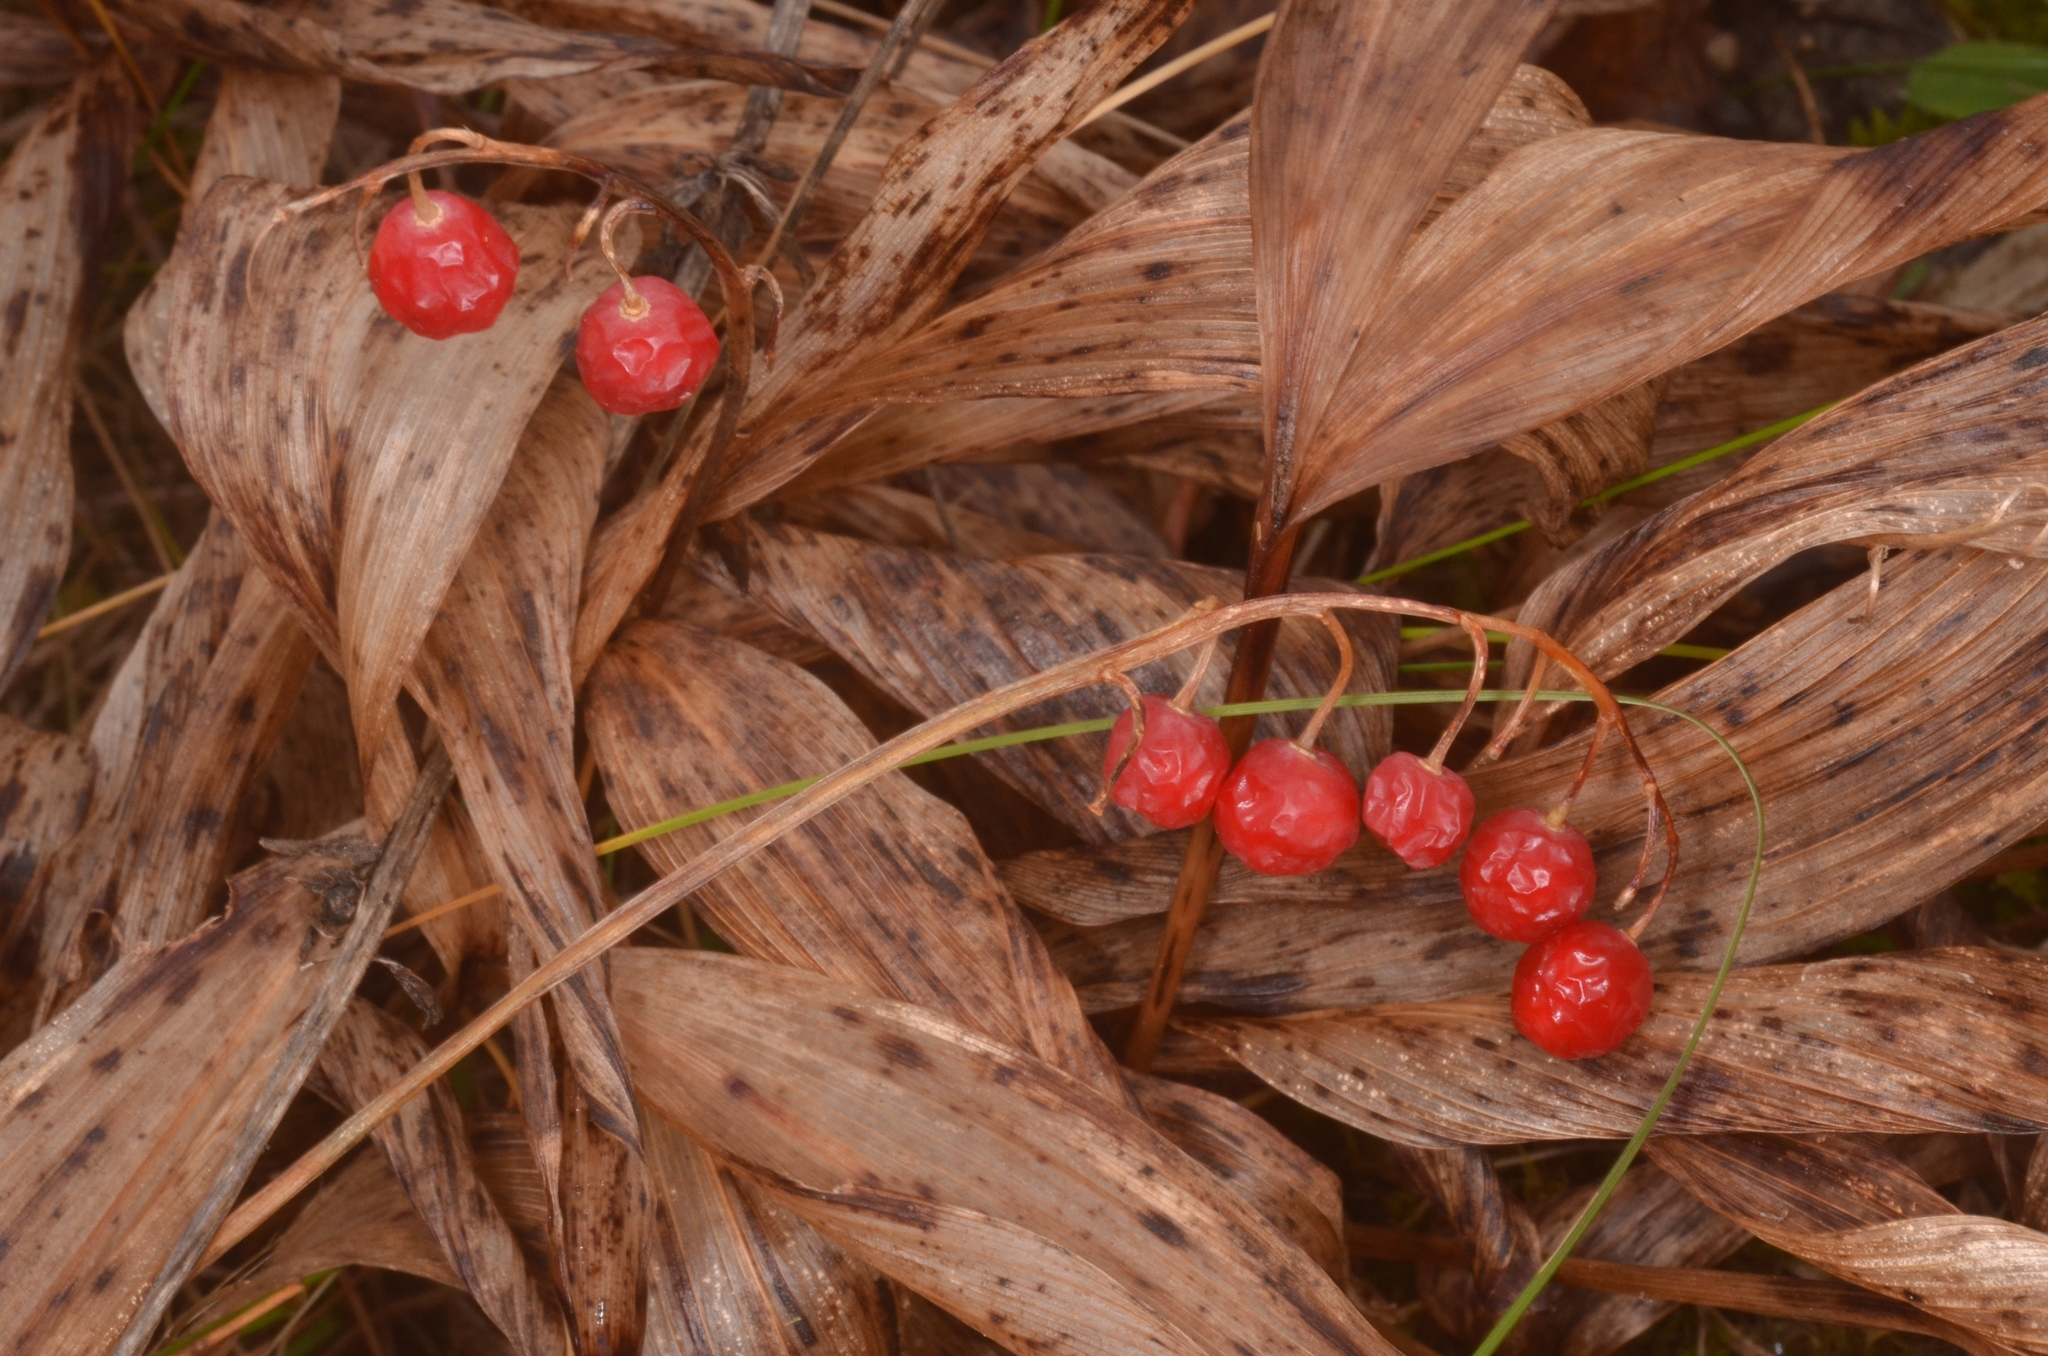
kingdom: Plantae
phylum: Tracheophyta
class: Liliopsida
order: Asparagales
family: Asparagaceae
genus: Convallaria
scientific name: Convallaria majalis
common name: Lily-of-the-valley
